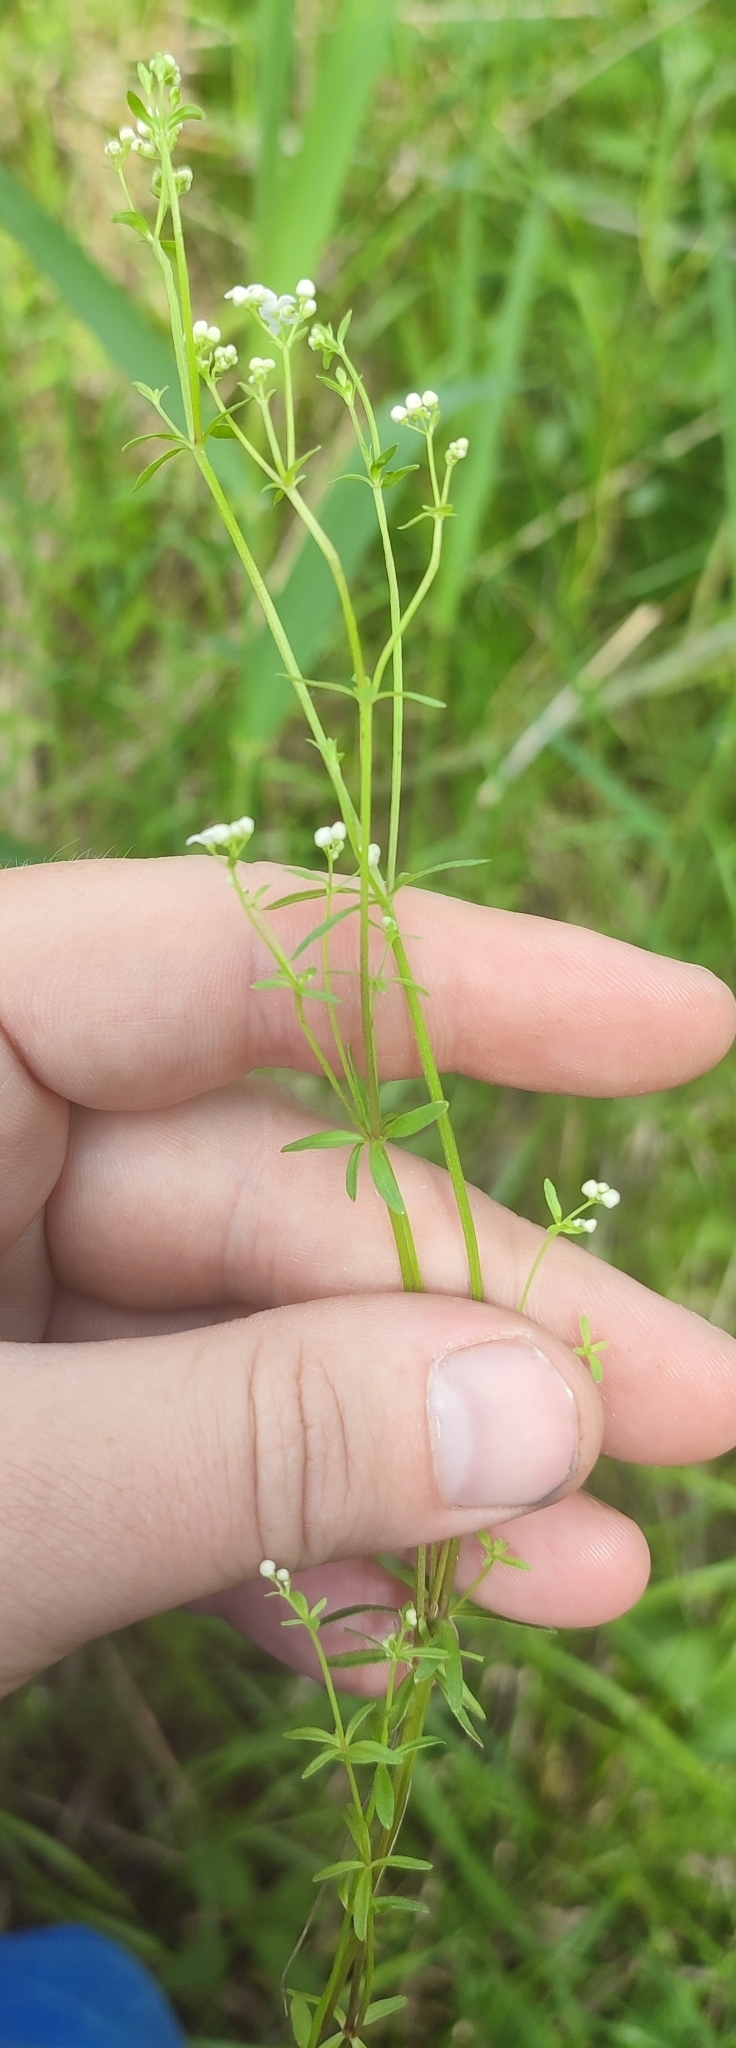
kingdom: Plantae
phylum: Tracheophyta
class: Magnoliopsida
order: Gentianales
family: Rubiaceae
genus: Galium
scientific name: Galium palustre
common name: Common marsh-bedstraw
